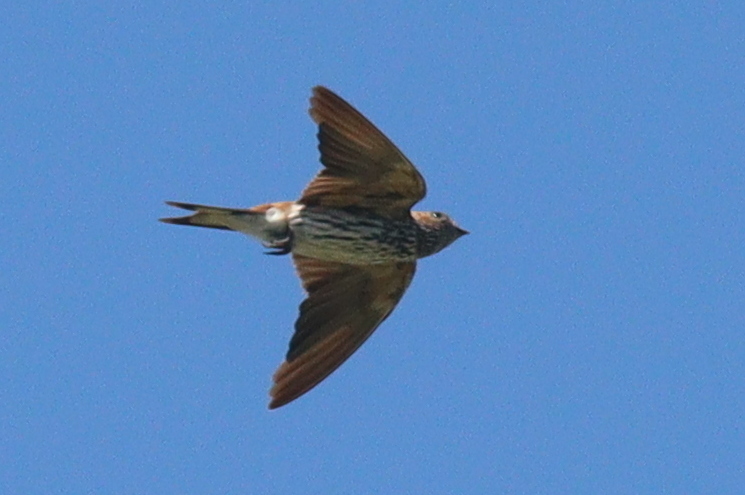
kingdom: Animalia
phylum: Chordata
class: Aves
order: Passeriformes
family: Hirundinidae
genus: Cecropis
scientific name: Cecropis abyssinica
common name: Lesser striped-swallow
